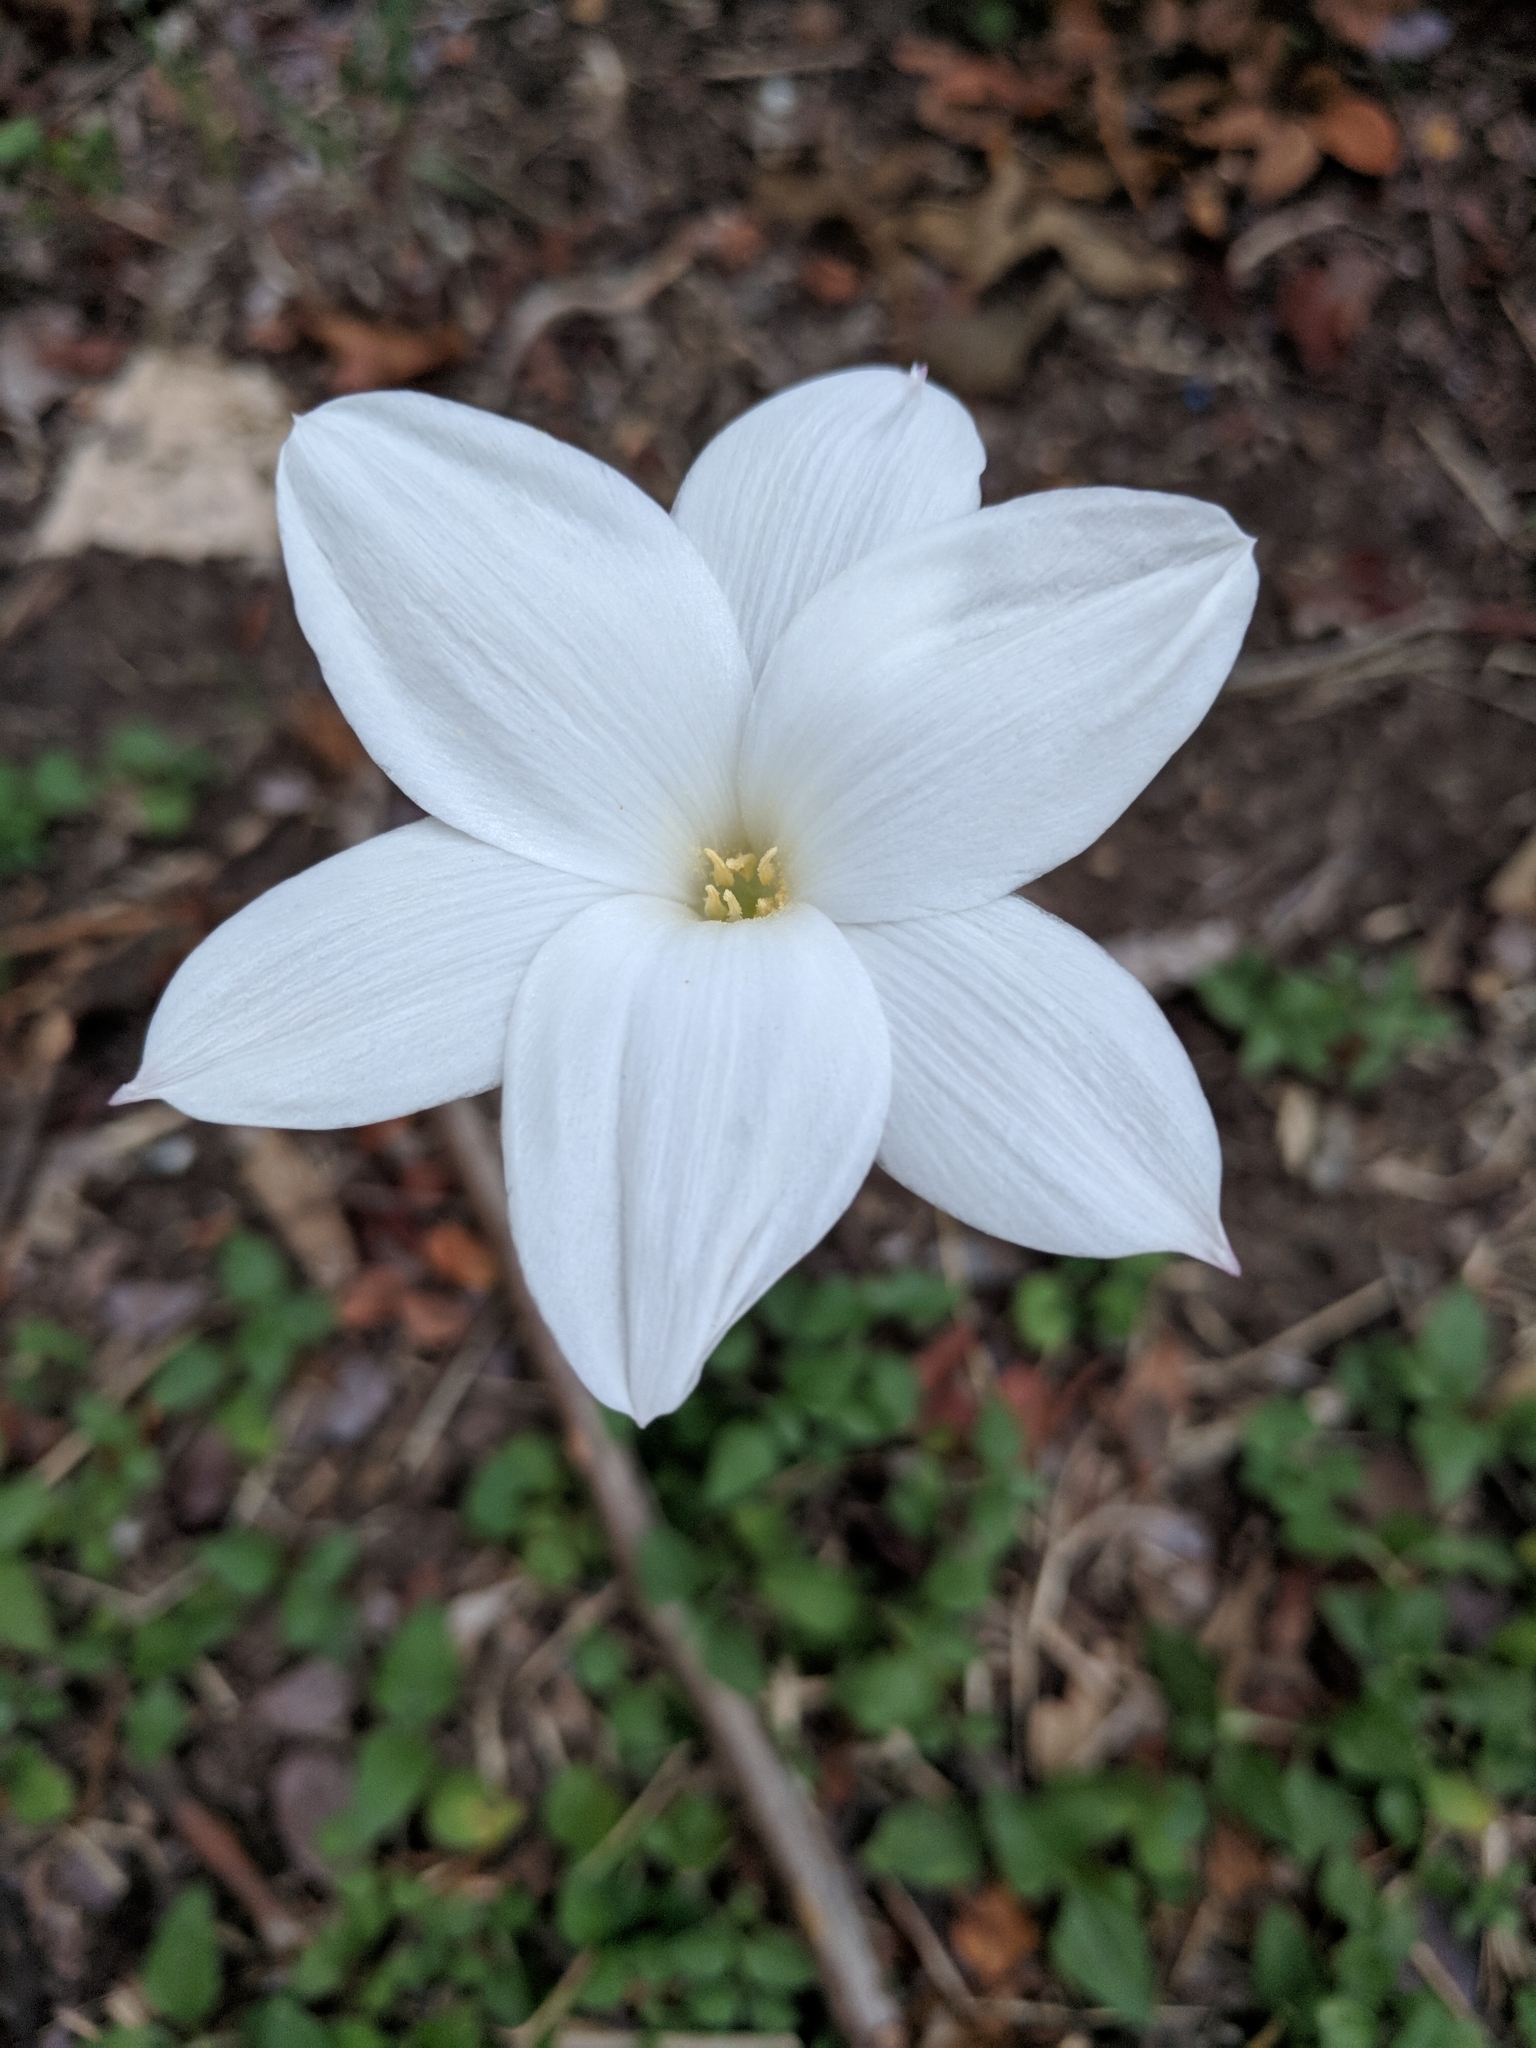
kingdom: Plantae
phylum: Tracheophyta
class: Liliopsida
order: Asparagales
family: Amaryllidaceae
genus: Zephyranthes
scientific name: Zephyranthes drummondii
